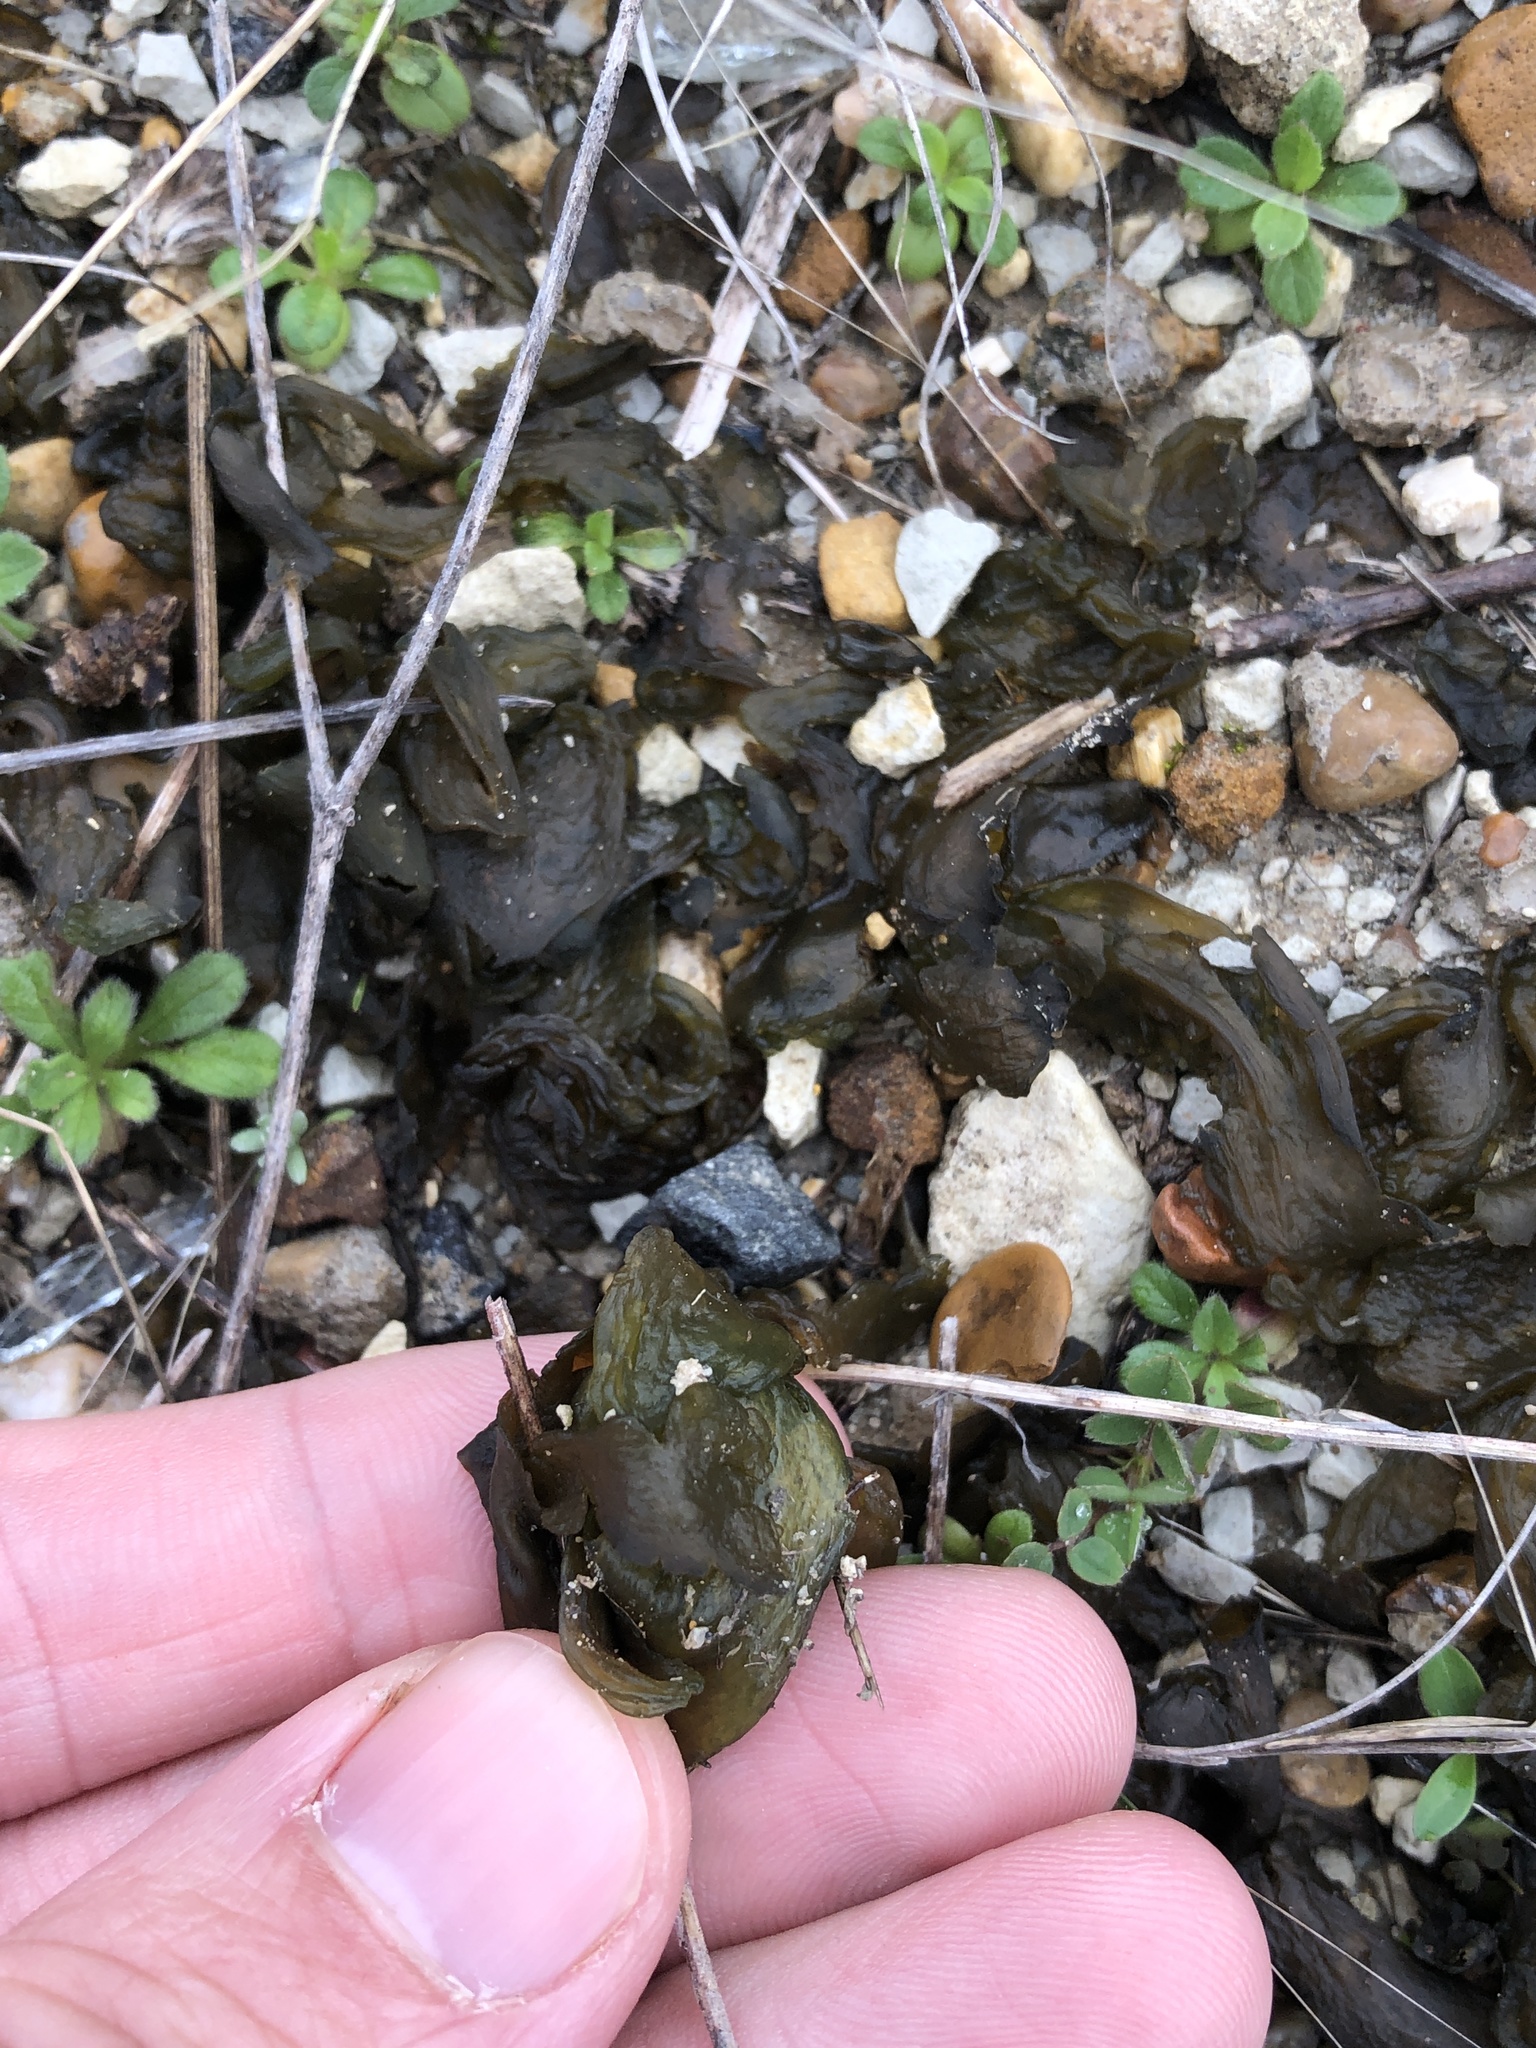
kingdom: Bacteria
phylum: Cyanobacteria
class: Cyanobacteriia
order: Cyanobacteriales
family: Nostocaceae
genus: Nostoc
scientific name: Nostoc commune
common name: Star jelly
